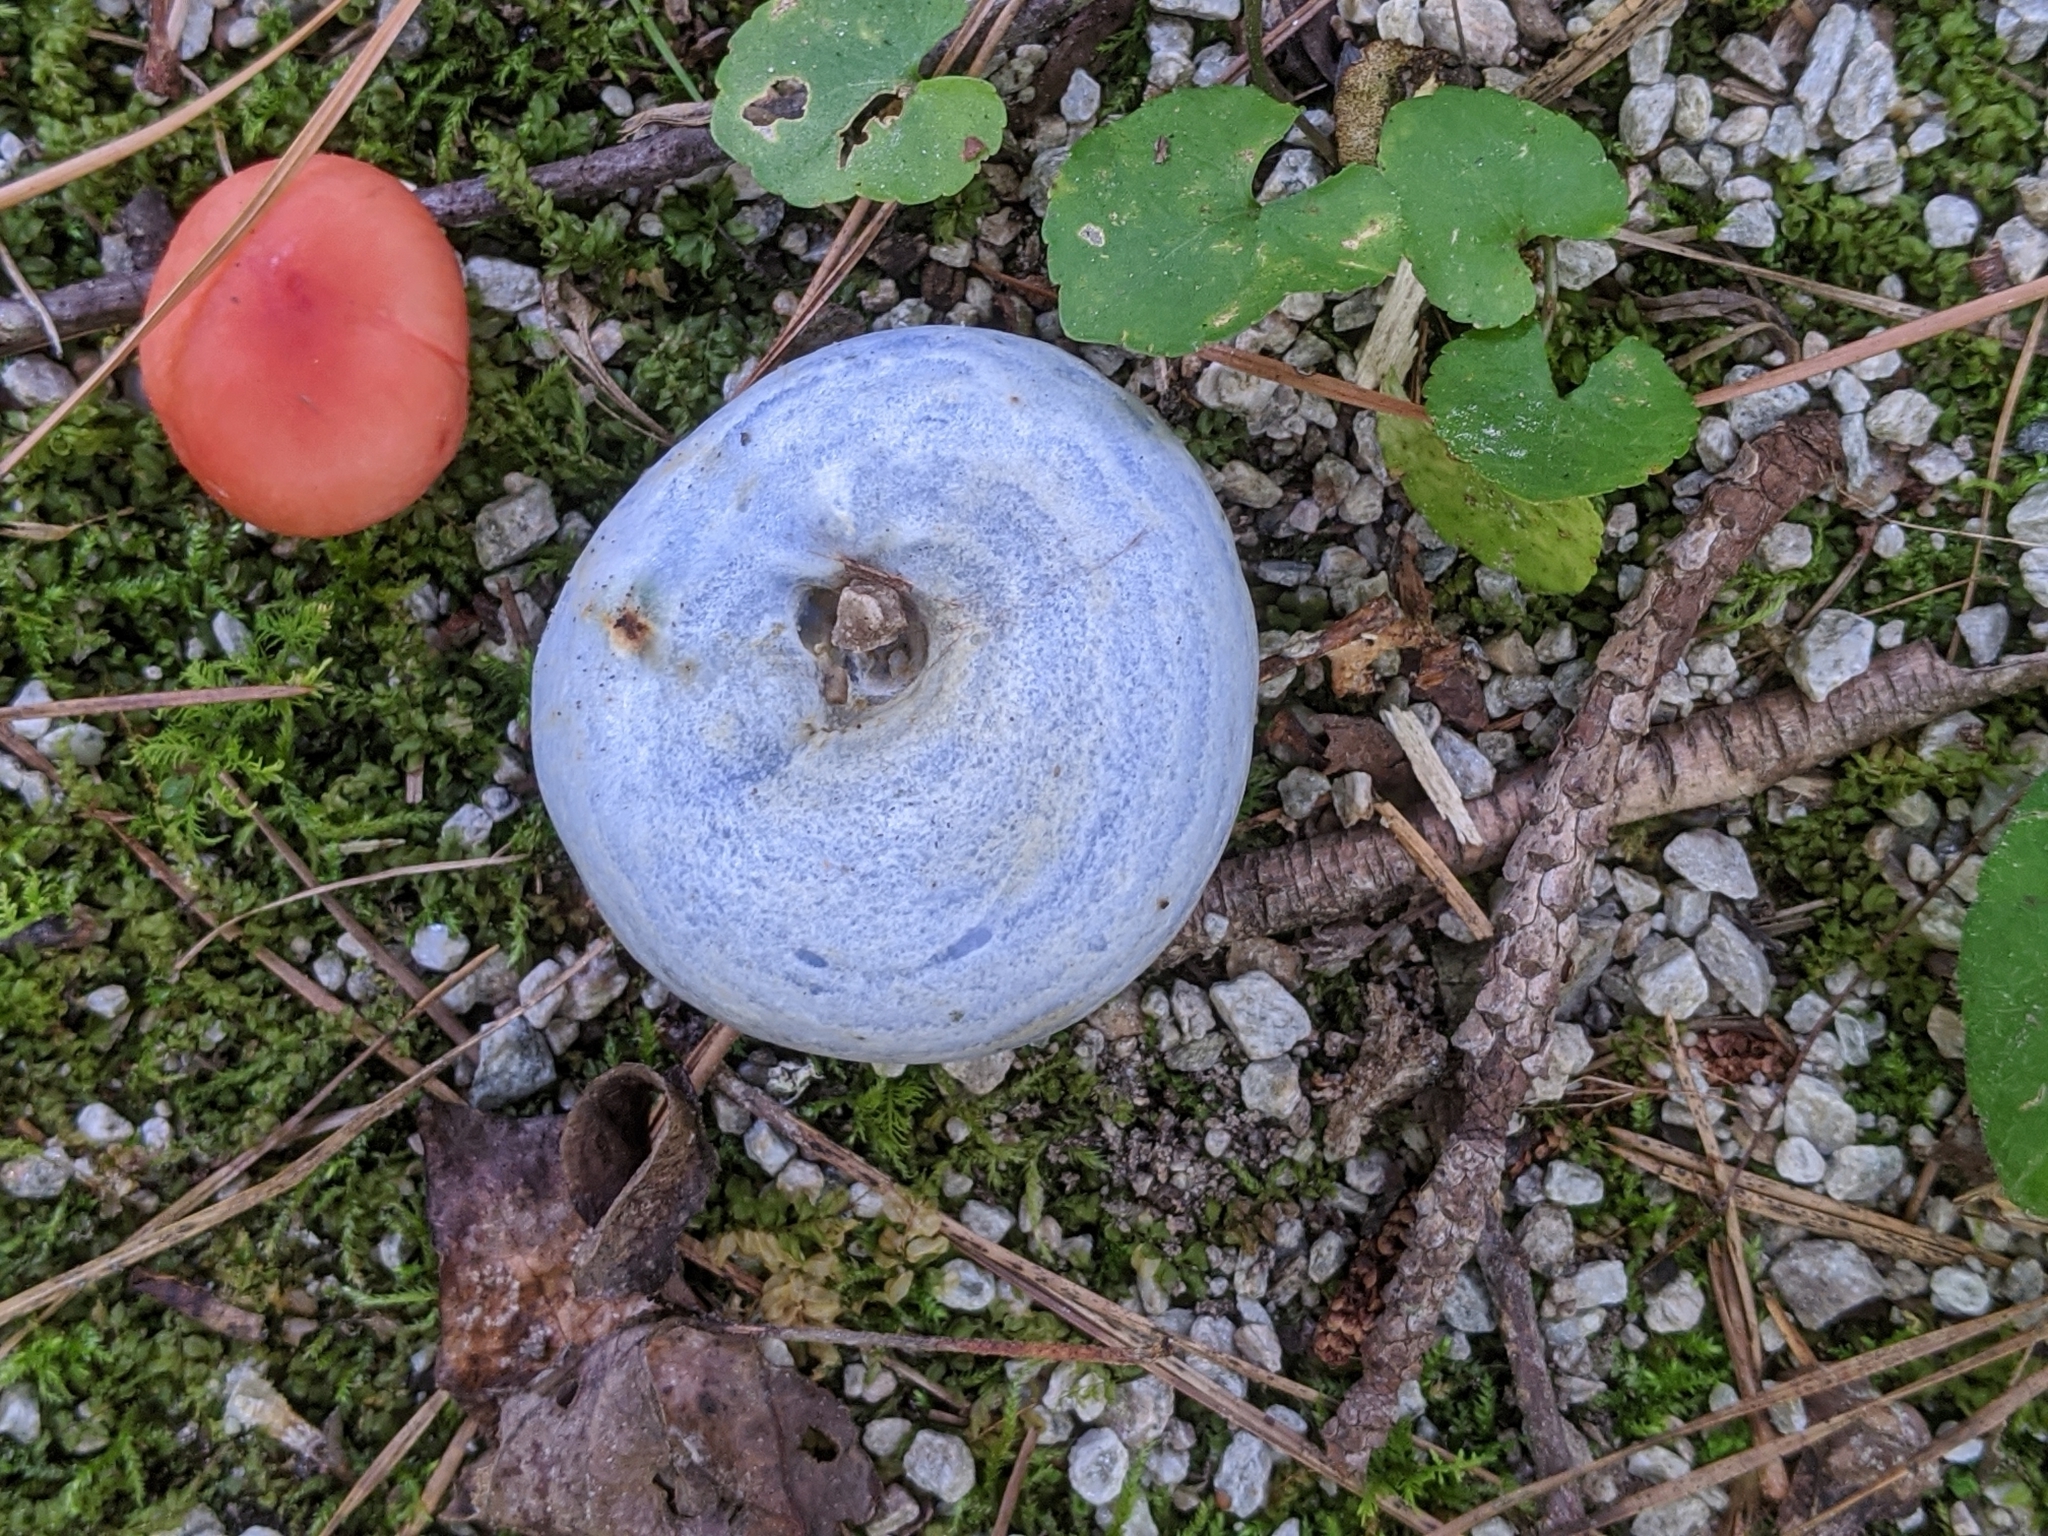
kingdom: Fungi
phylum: Basidiomycota
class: Agaricomycetes
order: Russulales
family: Russulaceae
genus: Lactarius
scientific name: Lactarius indigo
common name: Indigo milk cap
